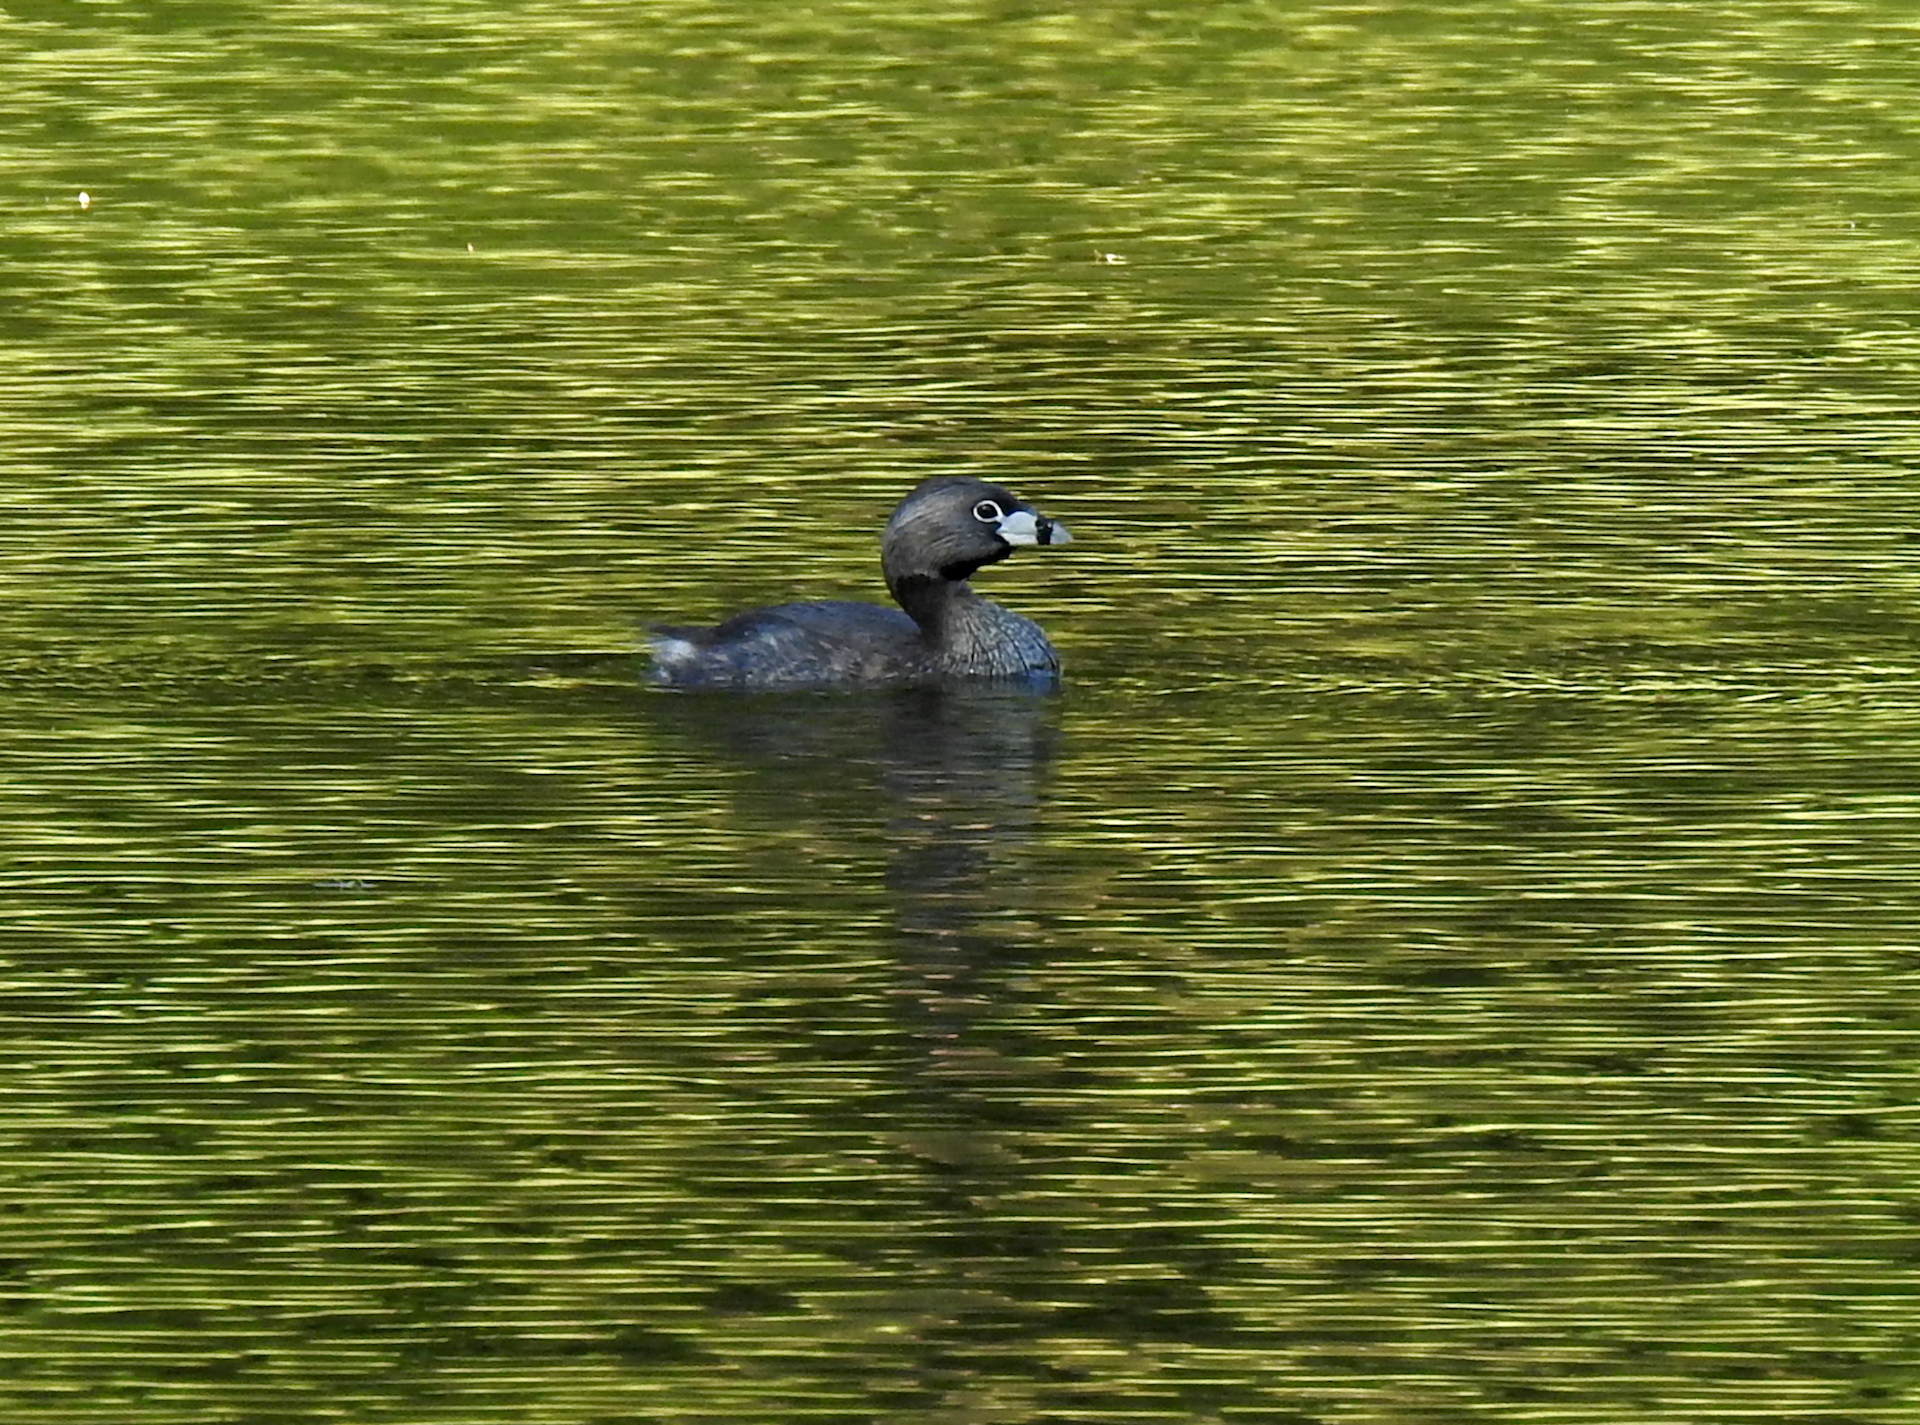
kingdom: Animalia
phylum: Chordata
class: Aves
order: Podicipediformes
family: Podicipedidae
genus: Podilymbus
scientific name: Podilymbus podiceps
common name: Pied-billed grebe
